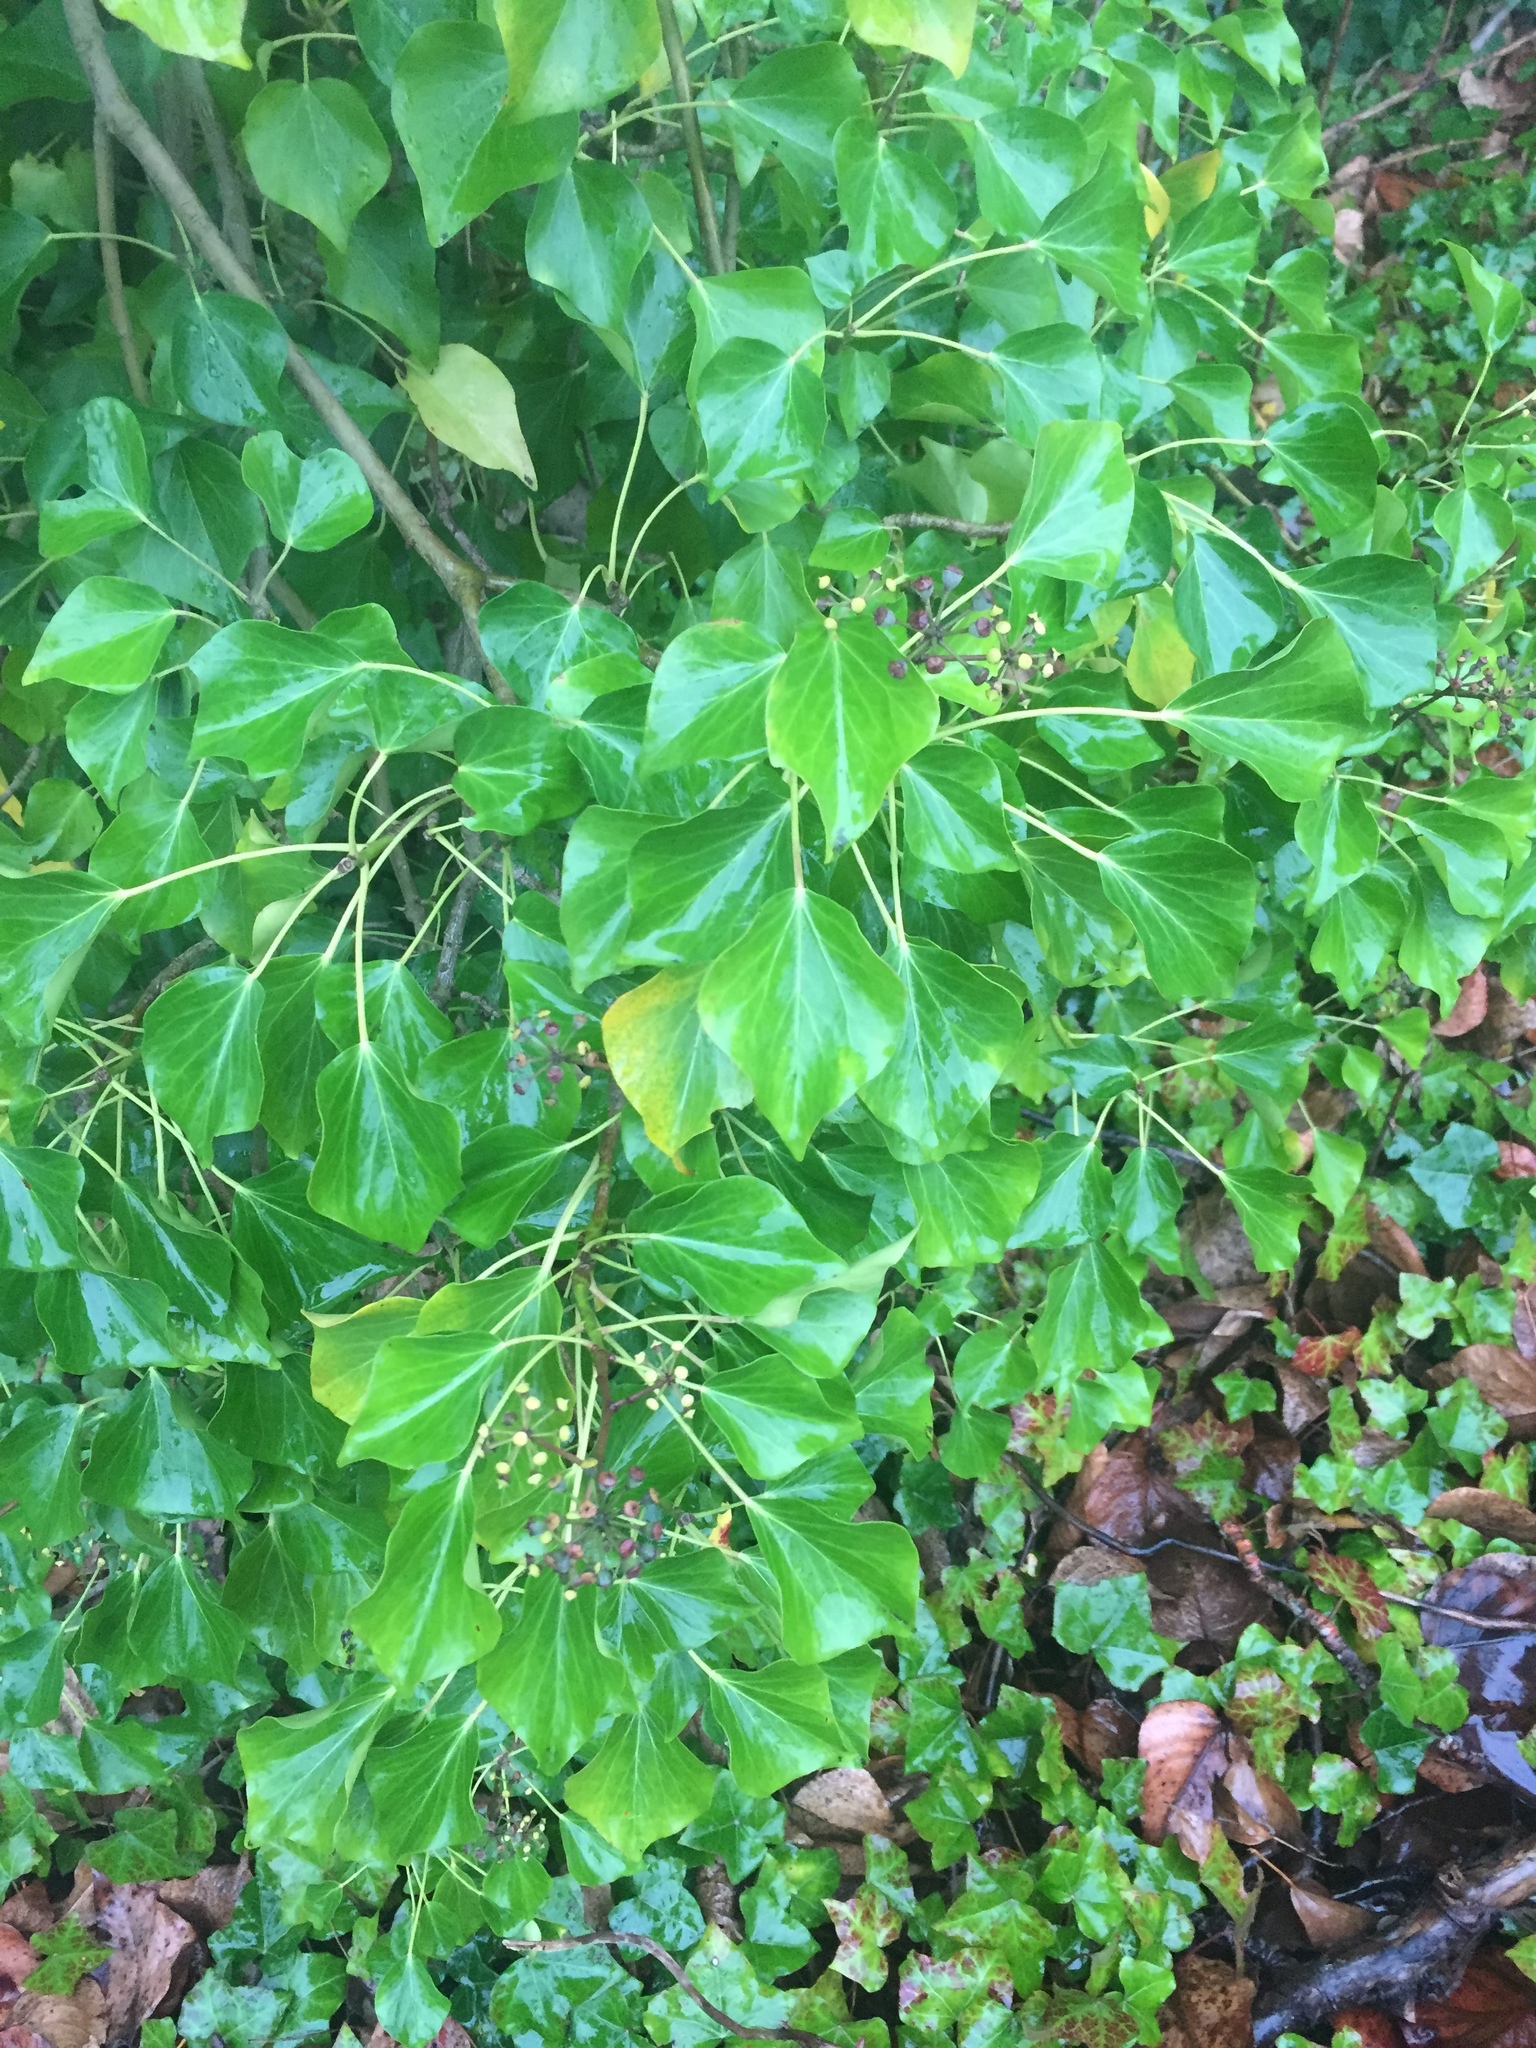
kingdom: Plantae
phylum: Tracheophyta
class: Magnoliopsida
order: Apiales
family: Araliaceae
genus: Hedera
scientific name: Hedera helix
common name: Ivy
